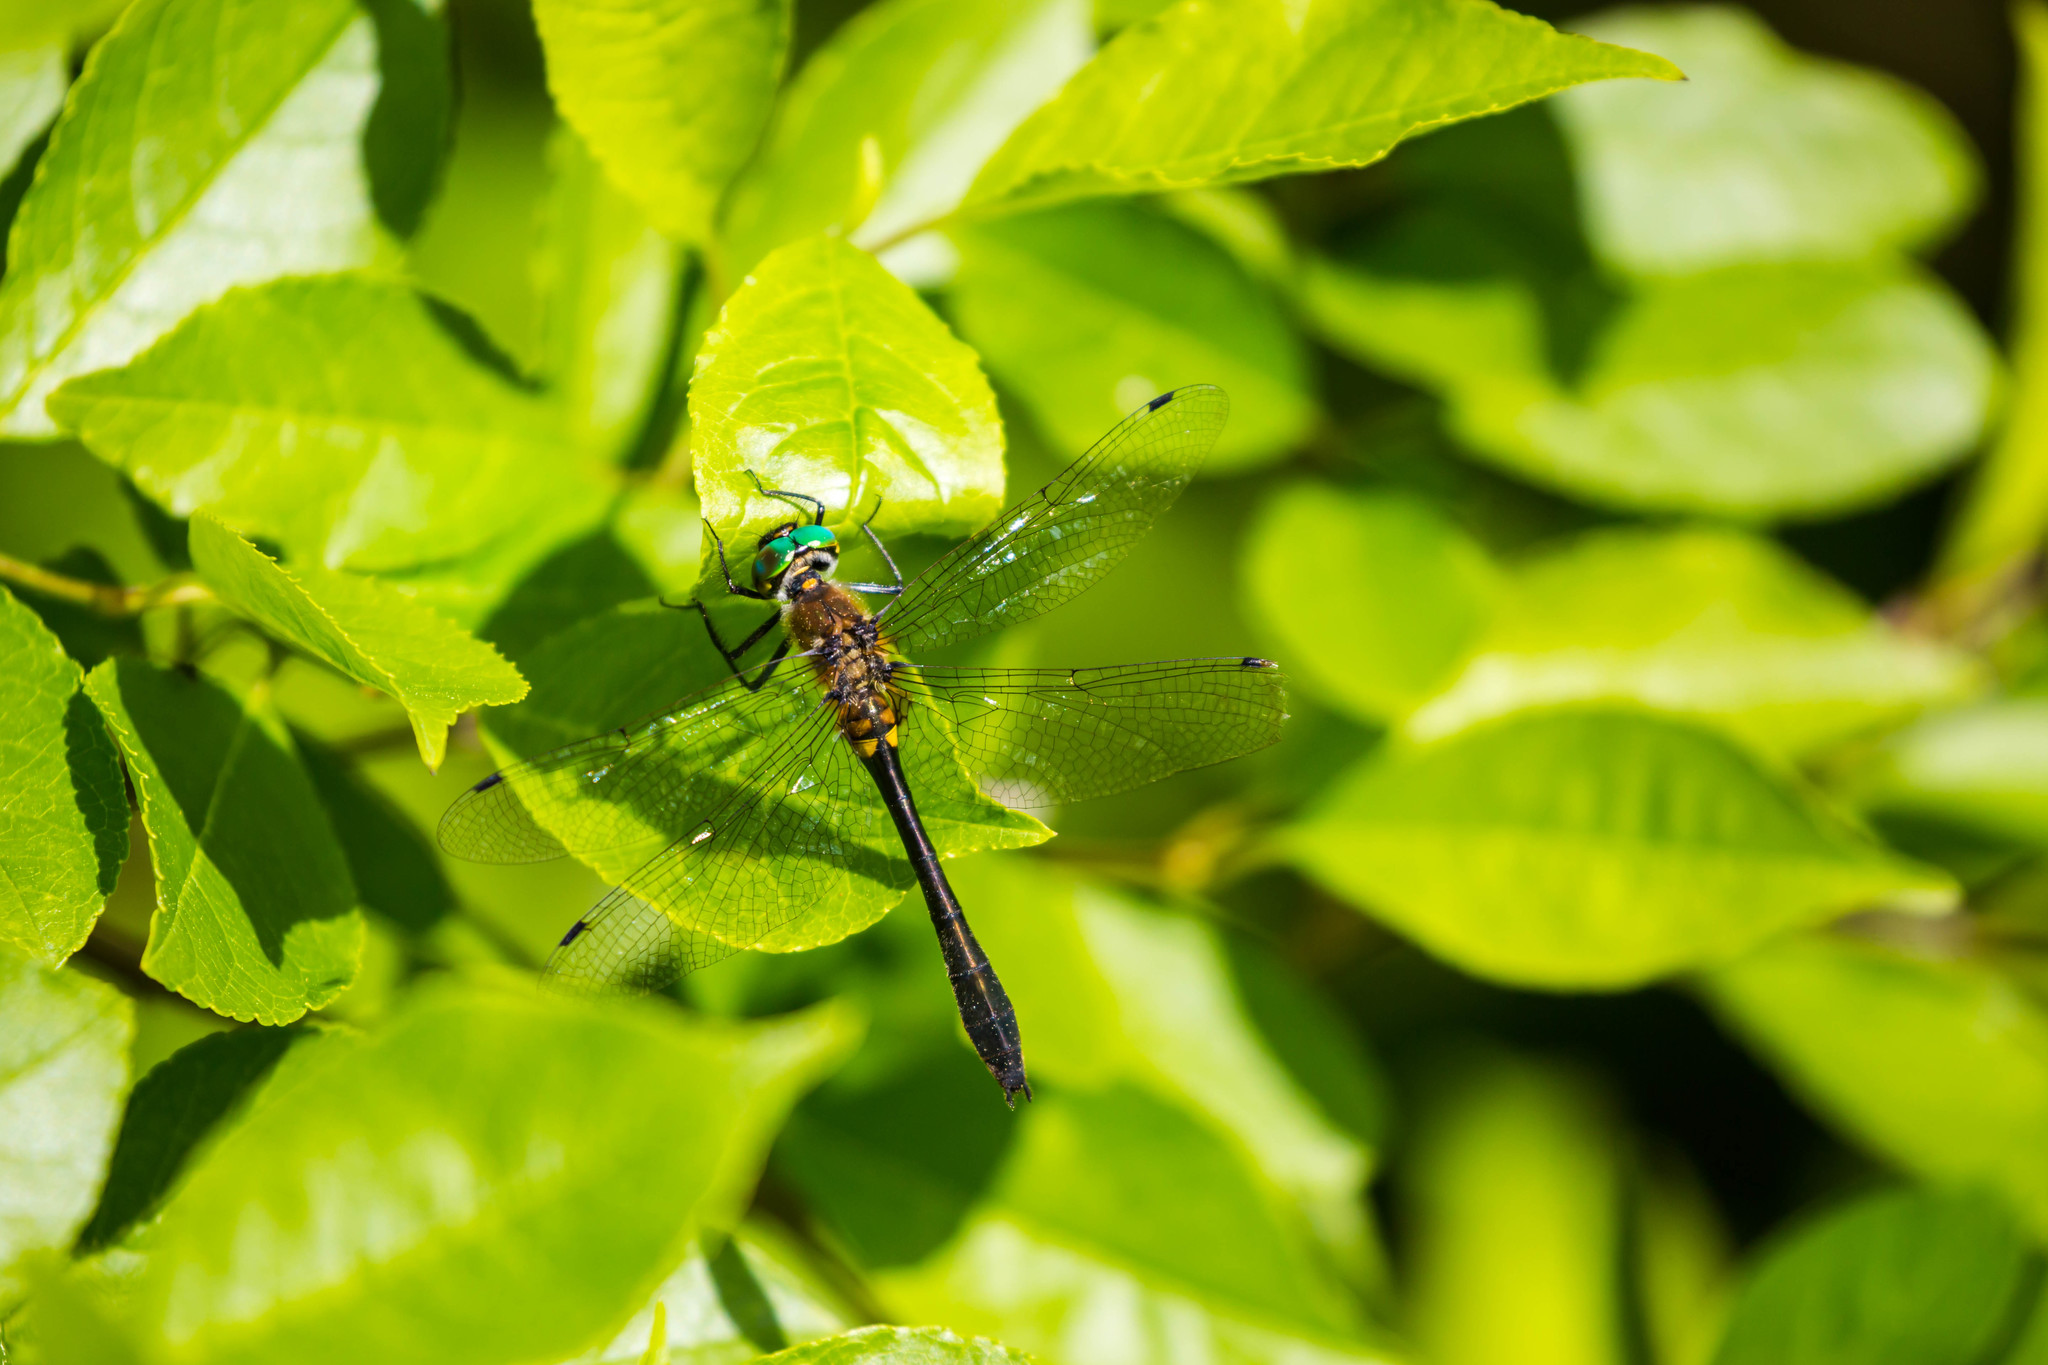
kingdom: Animalia
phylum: Arthropoda
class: Insecta
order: Odonata
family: Corduliidae
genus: Dorocordulia
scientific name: Dorocordulia libera
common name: Racket-tailed emerald
